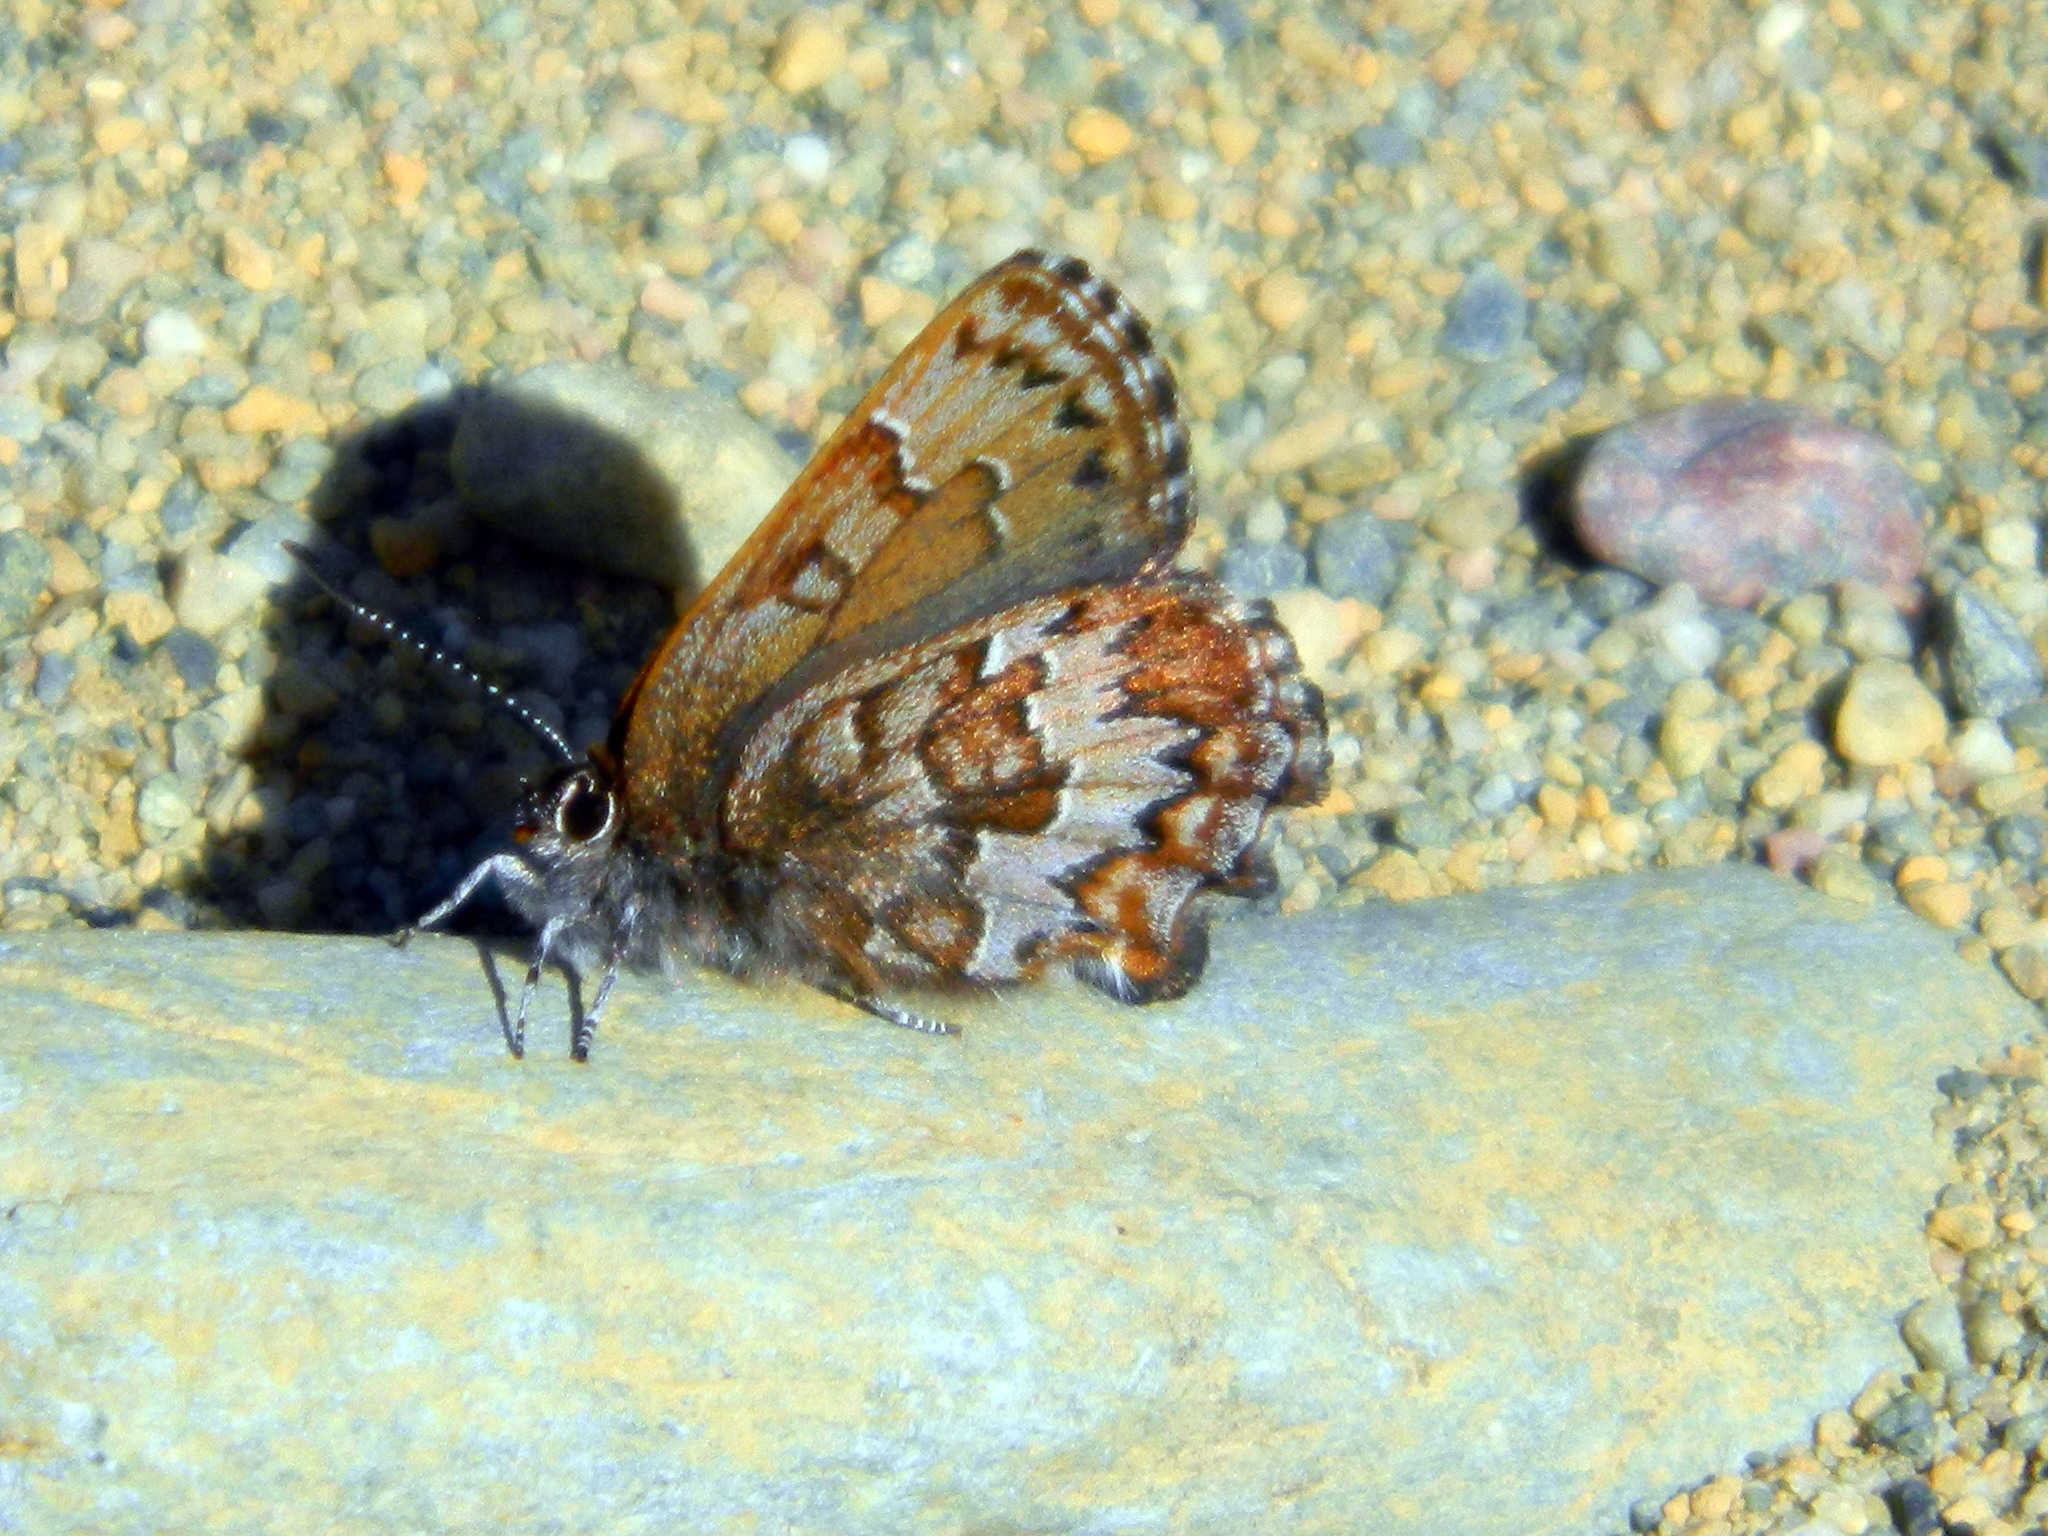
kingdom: Animalia
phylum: Arthropoda
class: Insecta
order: Lepidoptera
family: Lycaenidae
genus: Incisalia
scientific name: Incisalia niphon
